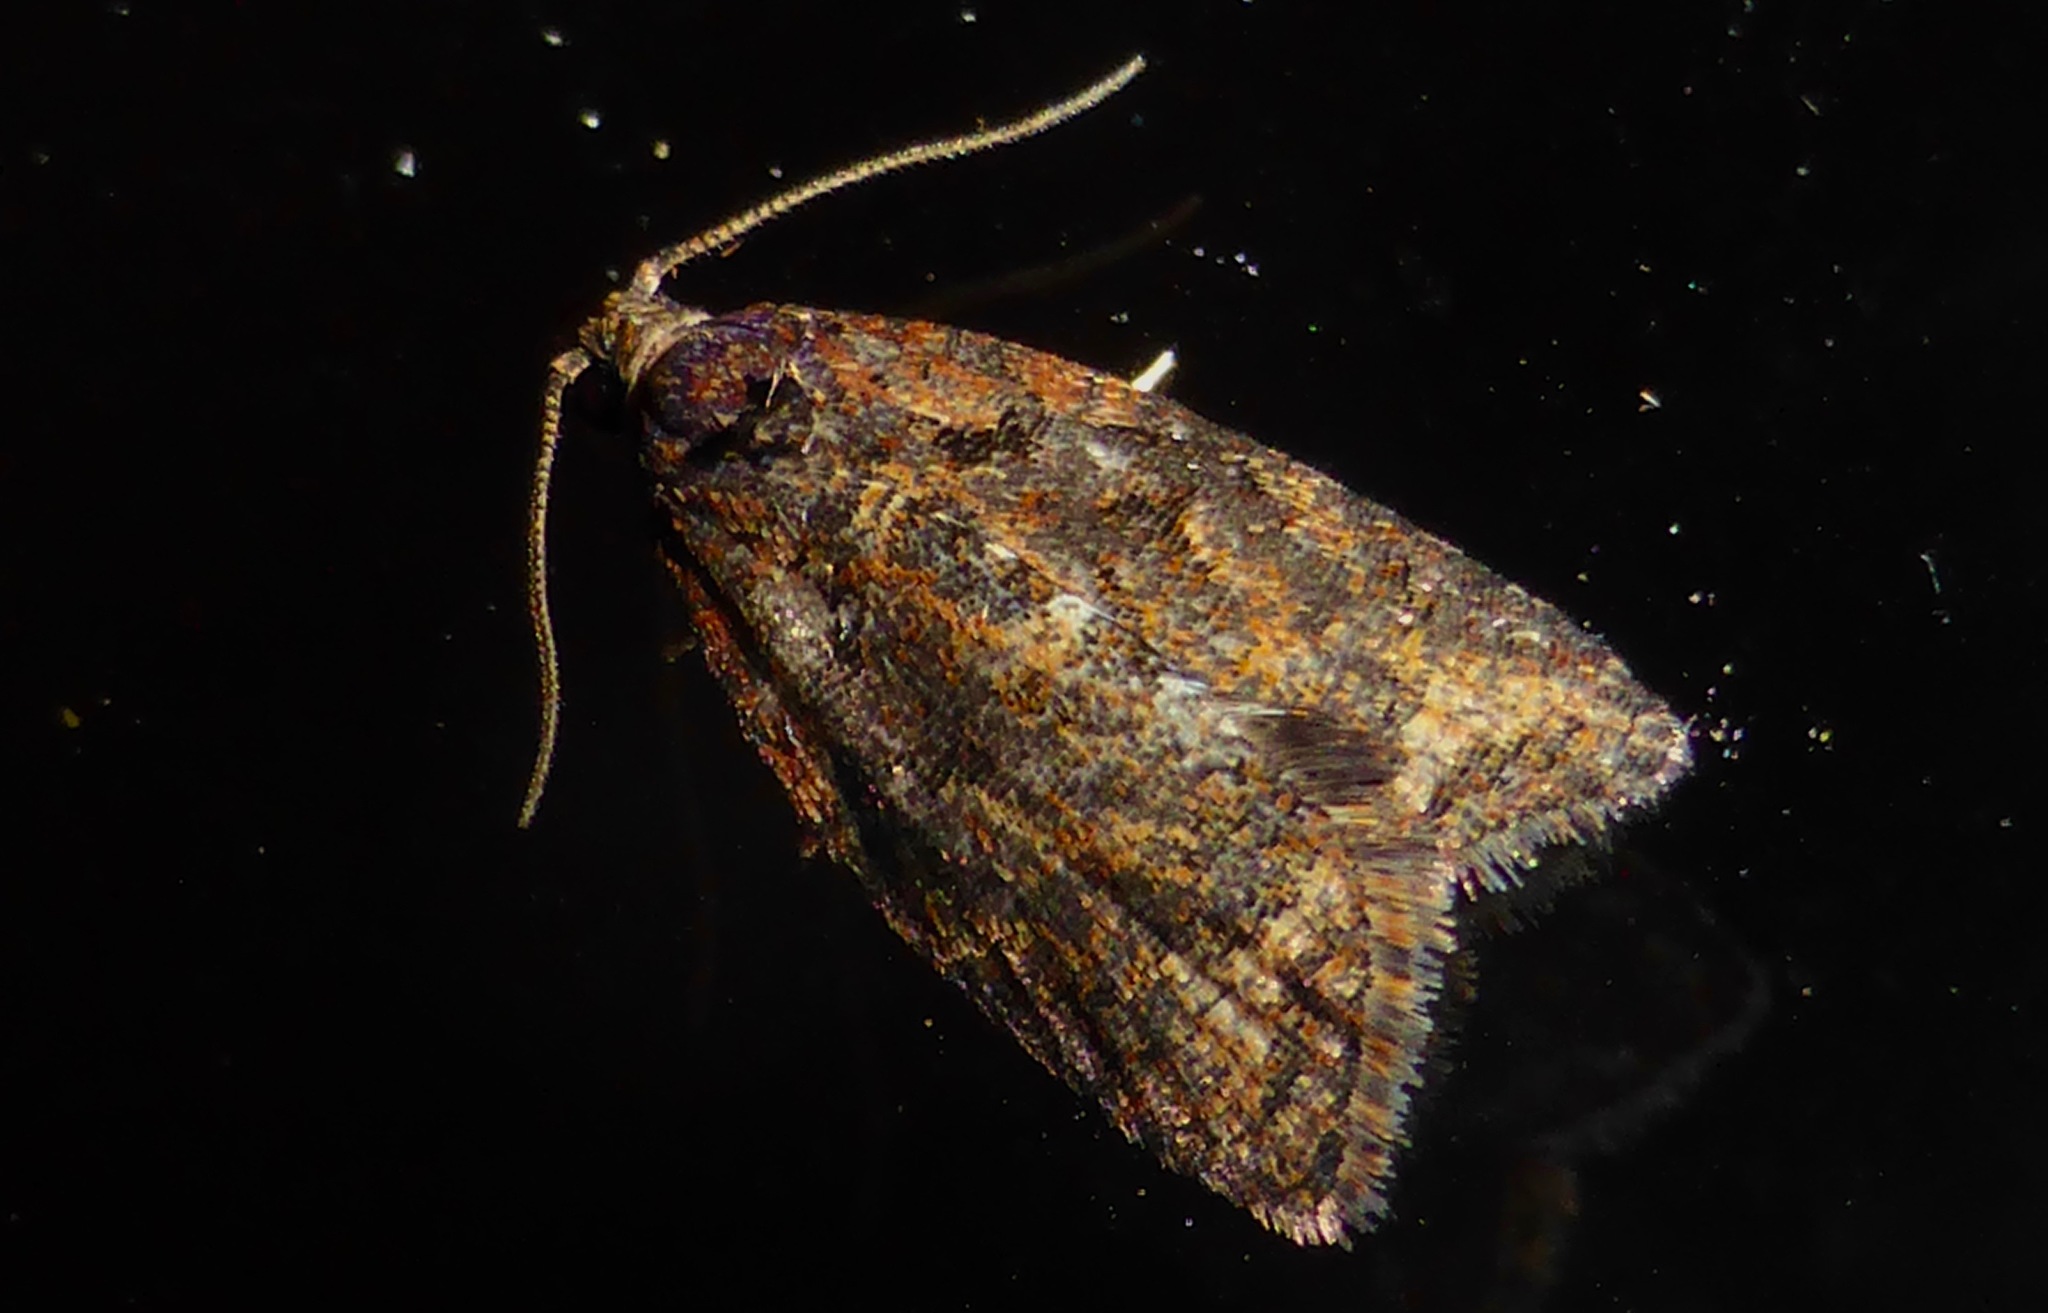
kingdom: Animalia
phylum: Arthropoda
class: Insecta
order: Lepidoptera
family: Tortricidae
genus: Capua
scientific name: Capua intractana
